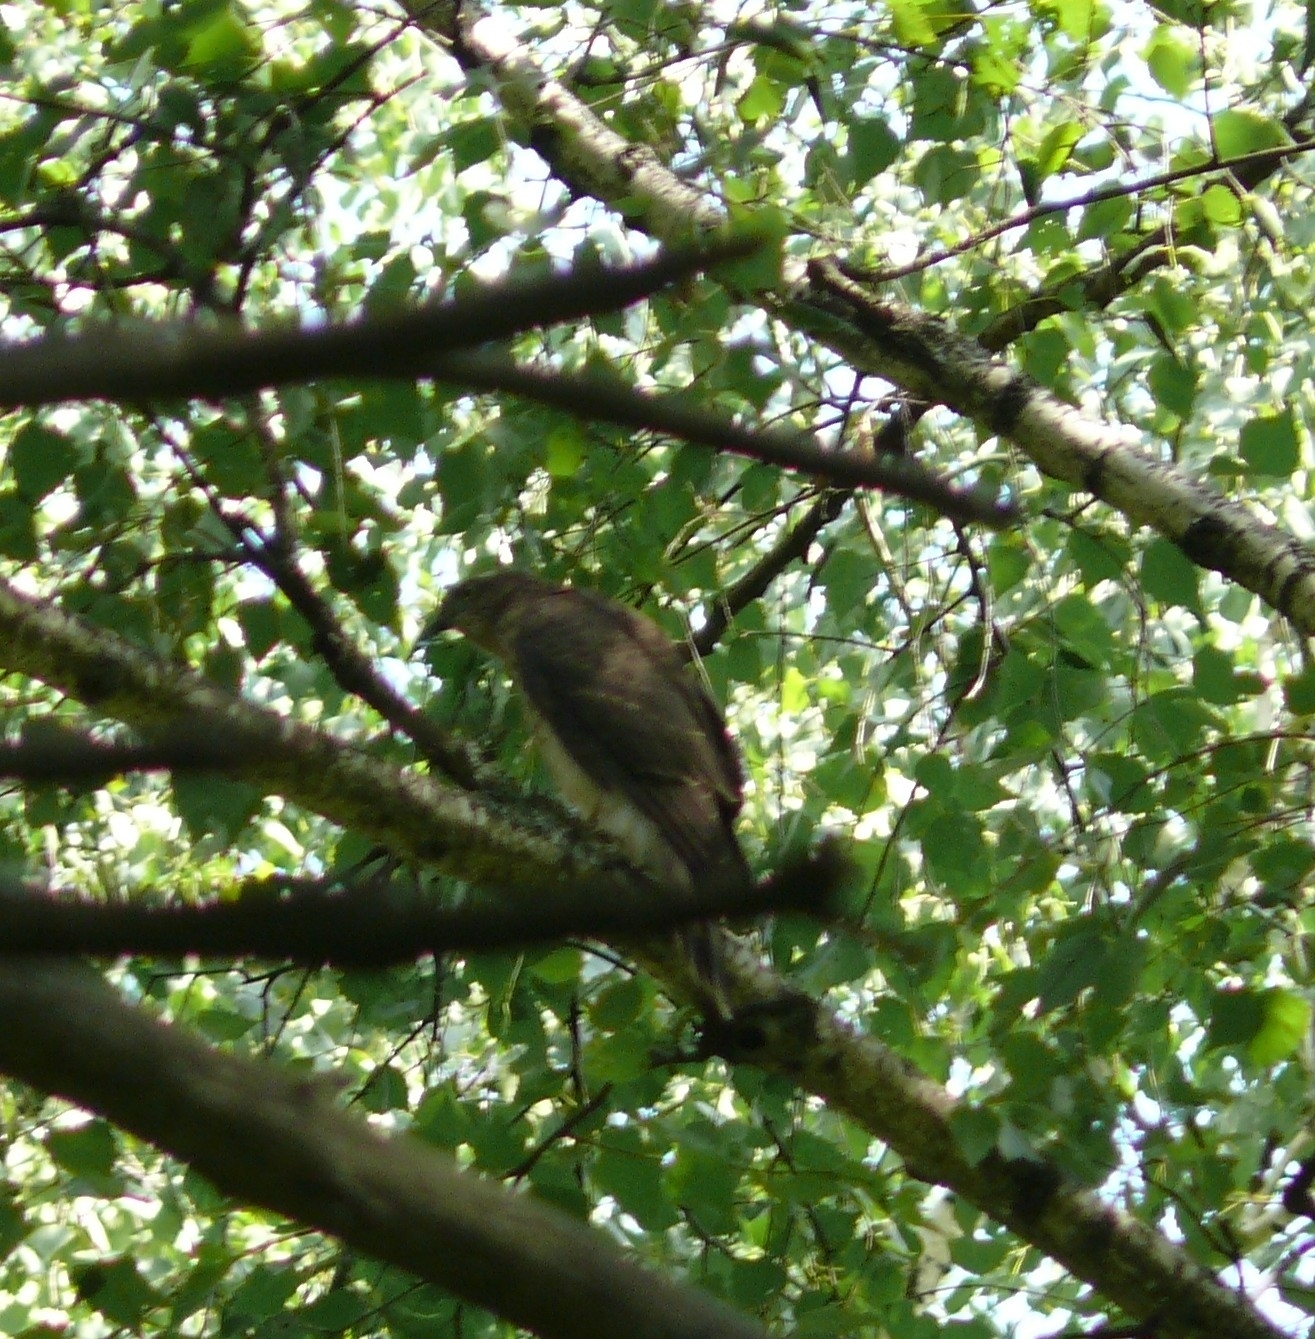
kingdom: Animalia
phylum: Chordata
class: Aves
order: Accipitriformes
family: Accipitridae
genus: Buteo
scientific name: Buteo buteo
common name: Common buzzard
